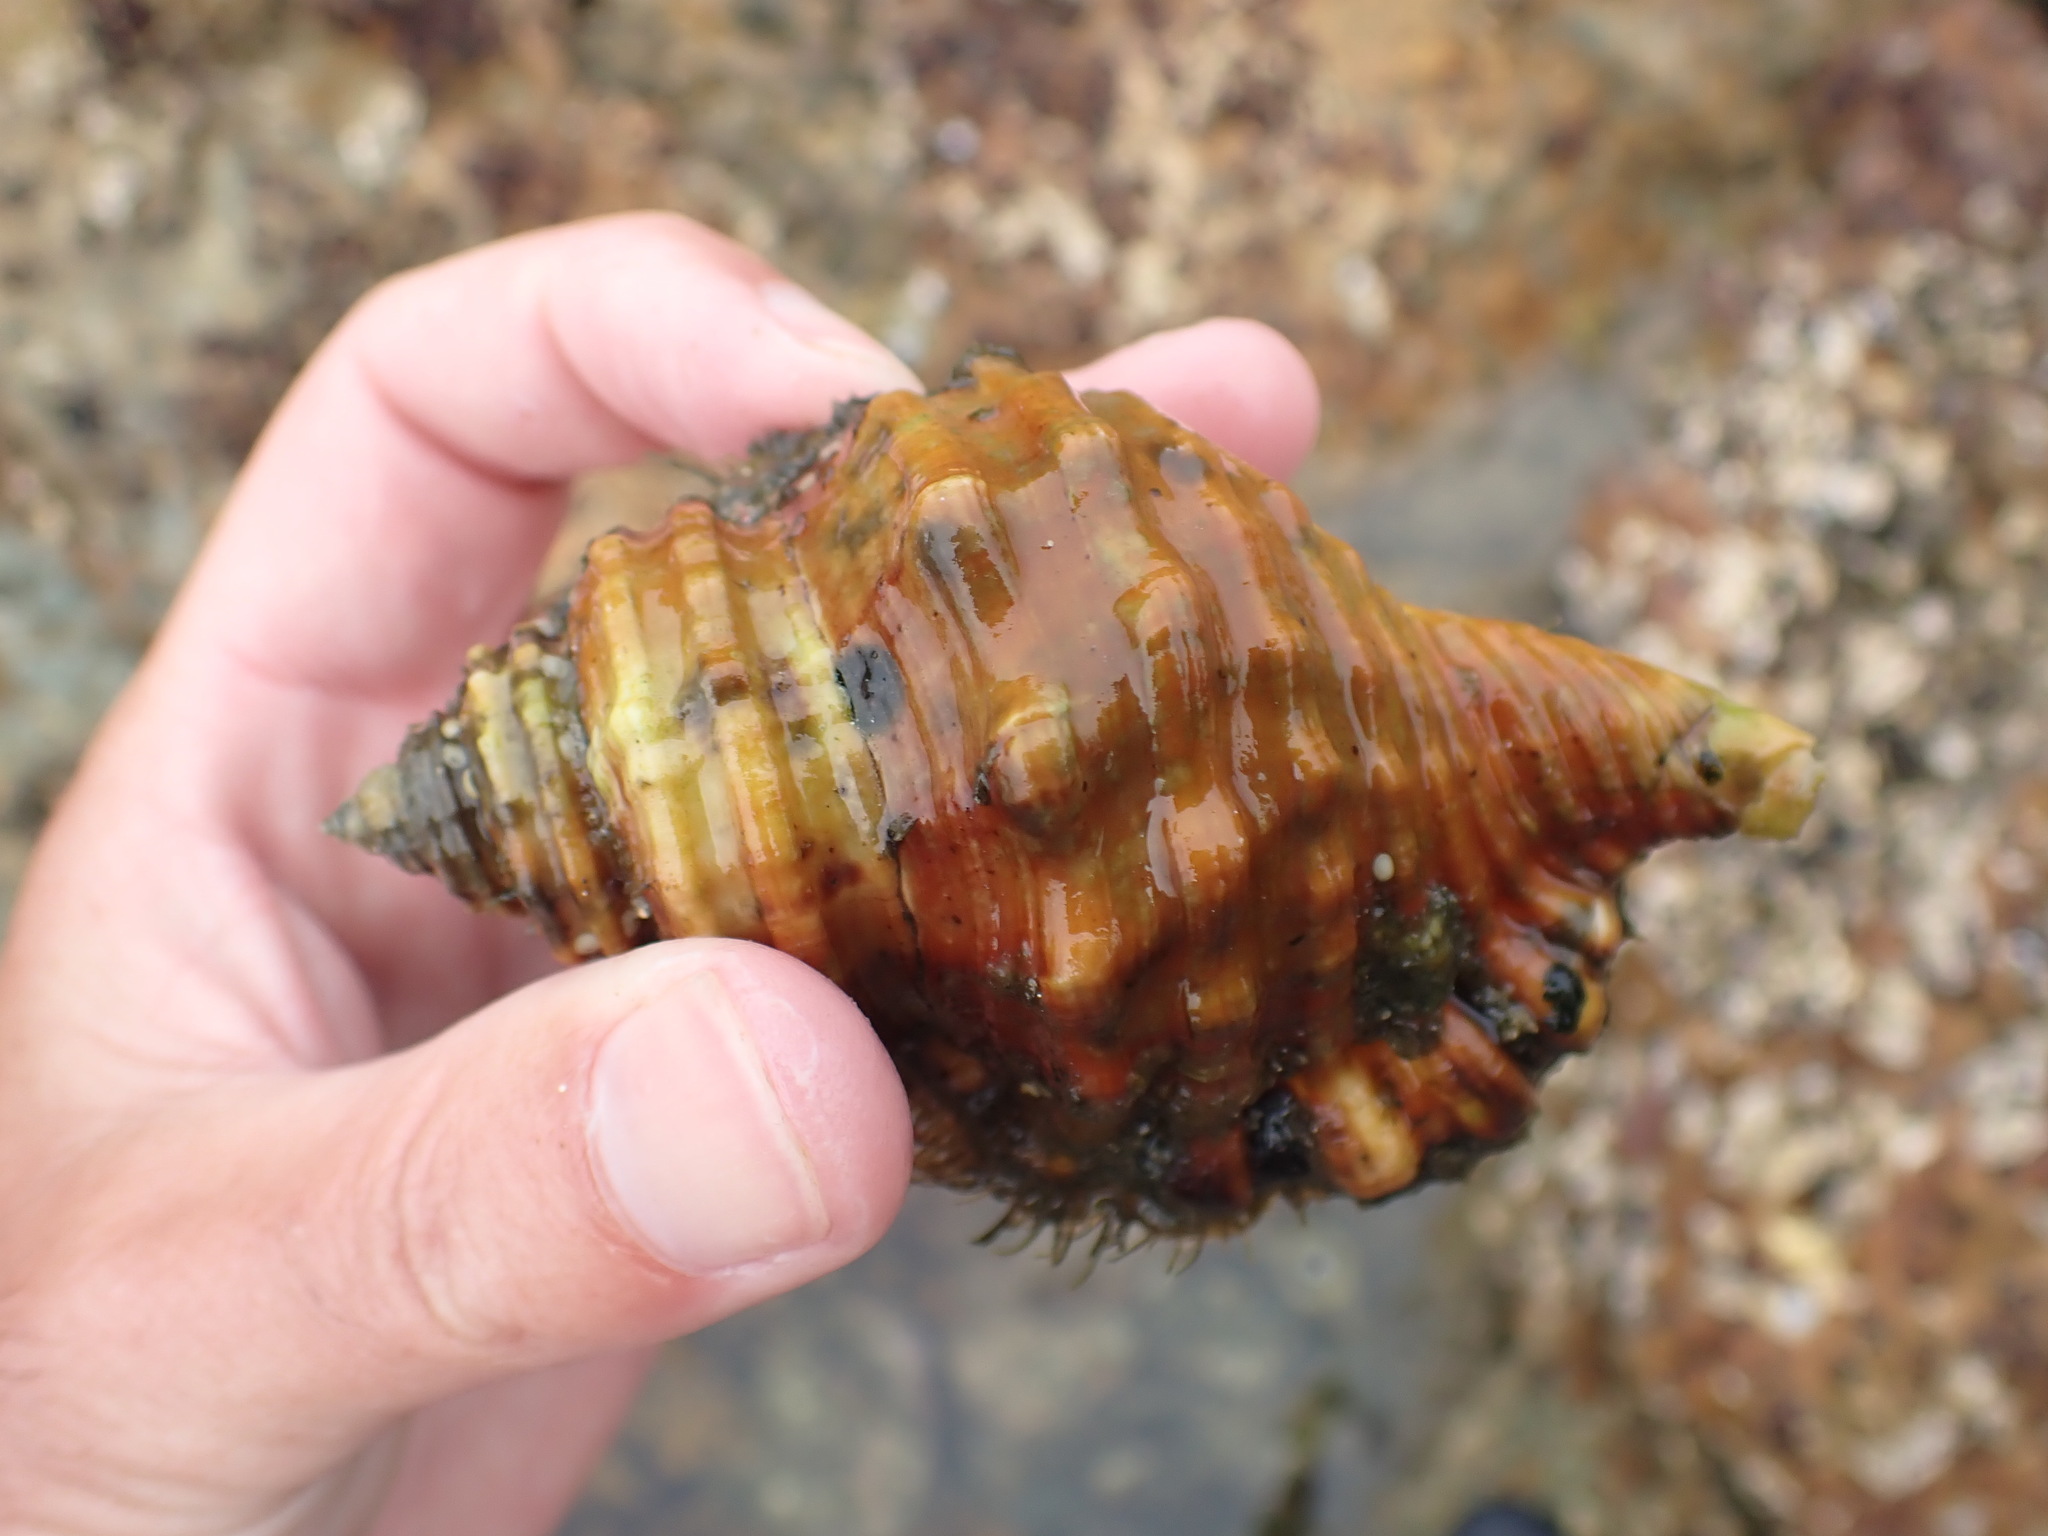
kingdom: Animalia
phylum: Mollusca
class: Gastropoda
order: Littorinimorpha
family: Cymatiidae
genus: Monoplex
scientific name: Monoplex parthenopeus
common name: Giant triton
